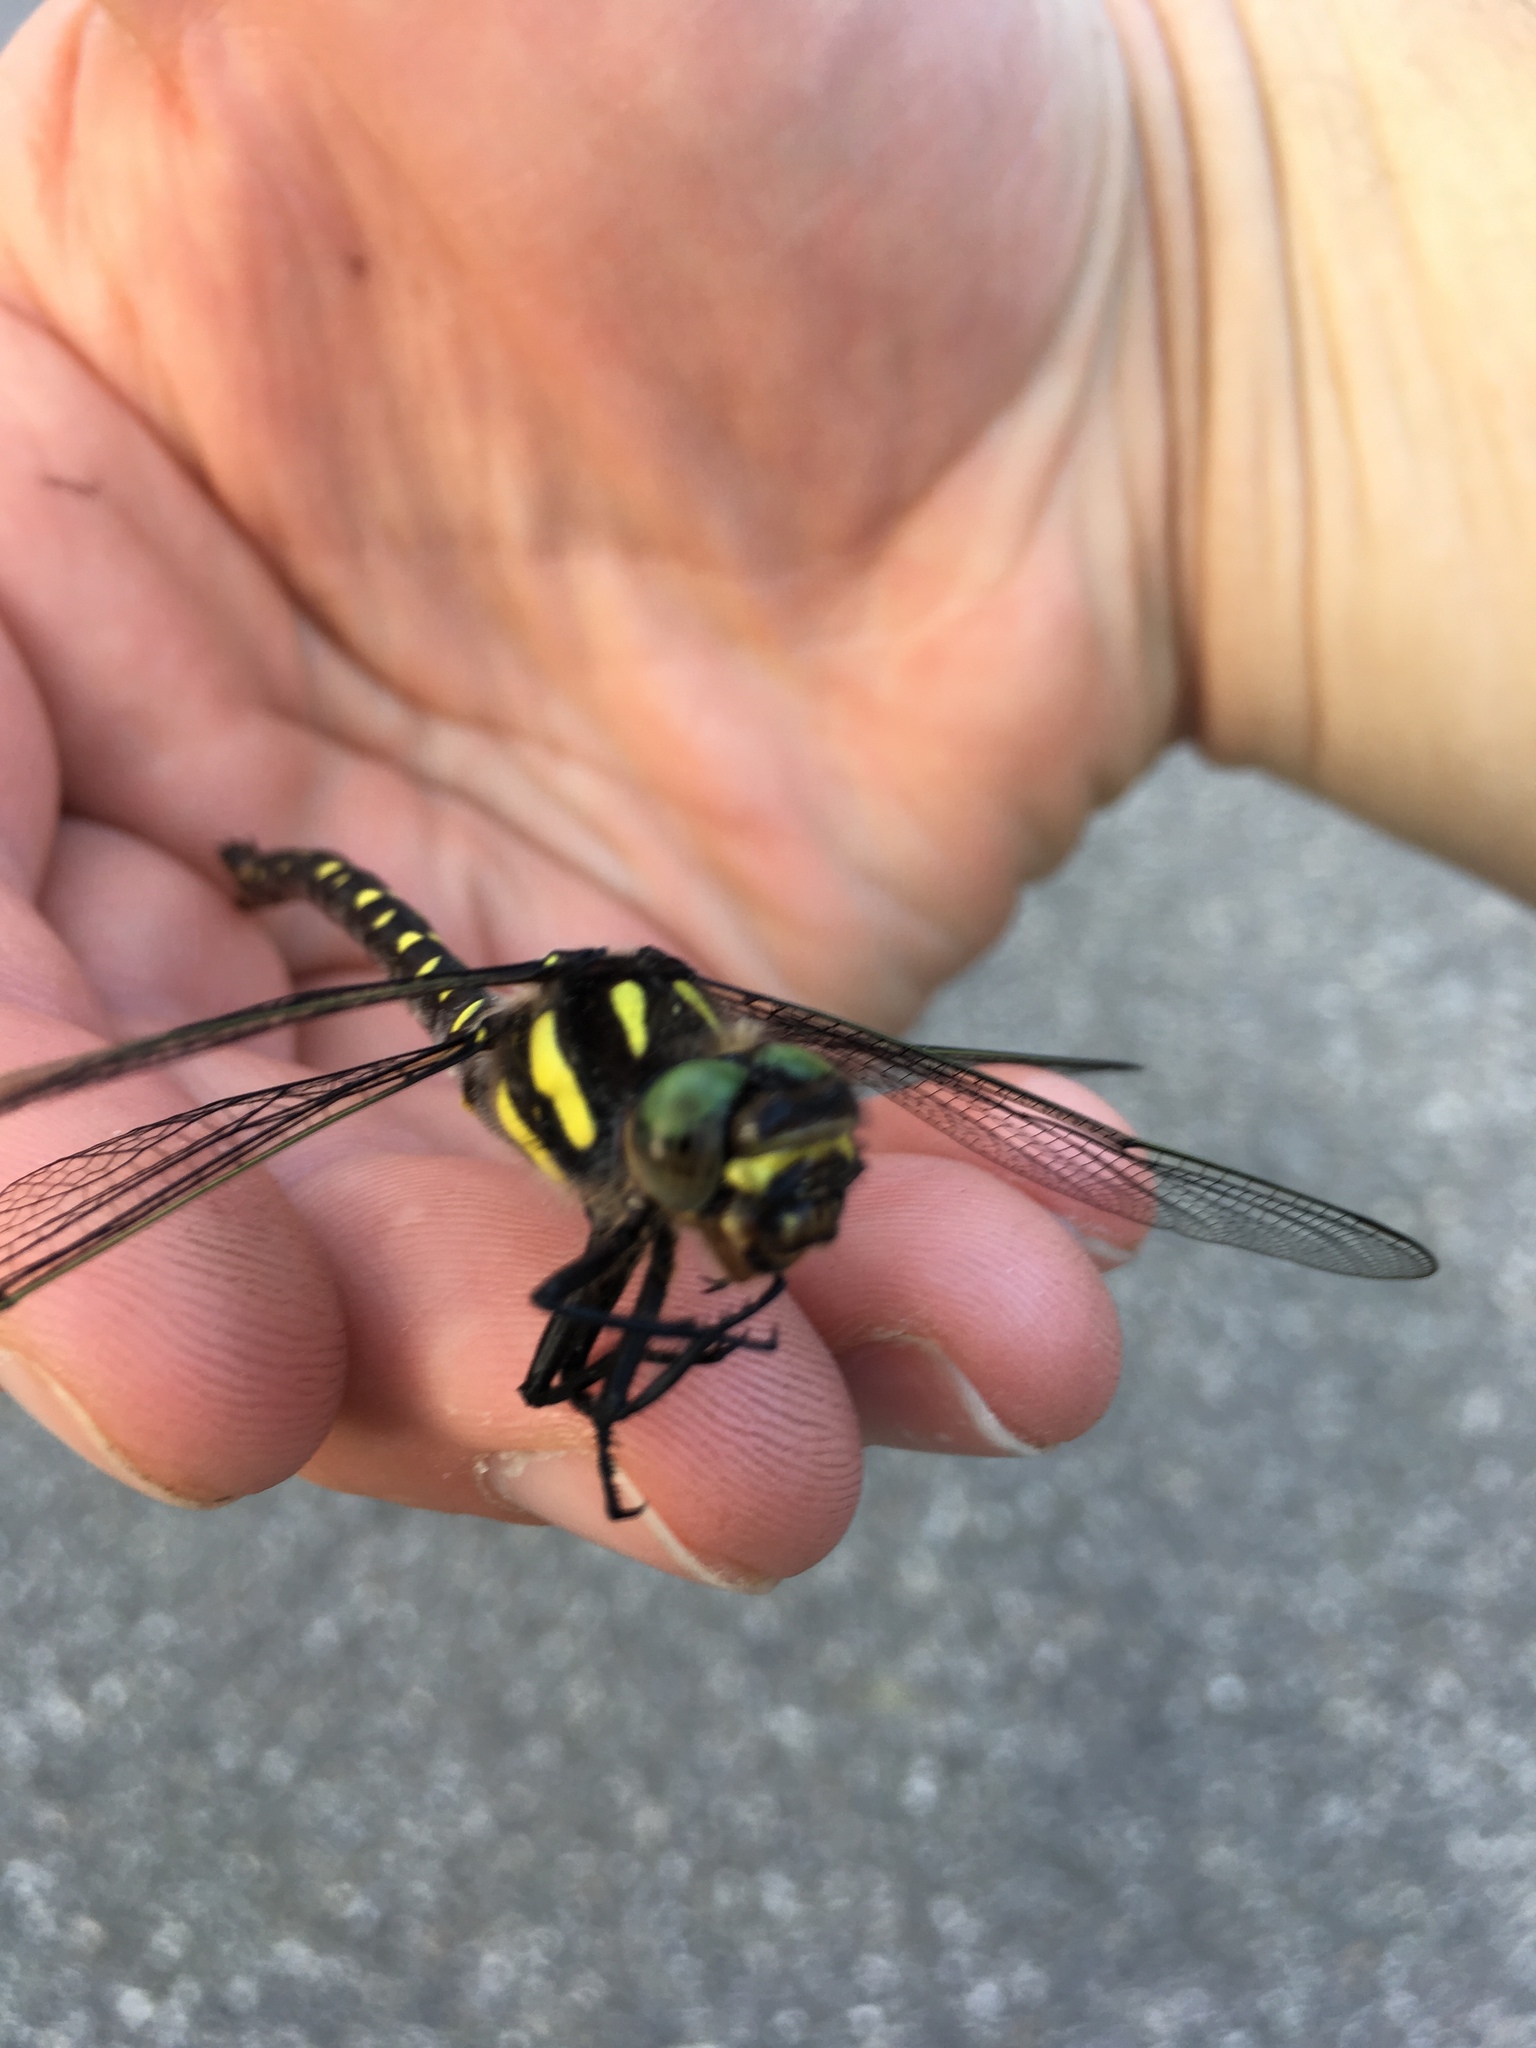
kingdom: Animalia
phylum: Arthropoda
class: Insecta
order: Odonata
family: Cordulegastridae
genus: Cordulegaster
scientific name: Cordulegaster maculata
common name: Twin-spotted spiketail
